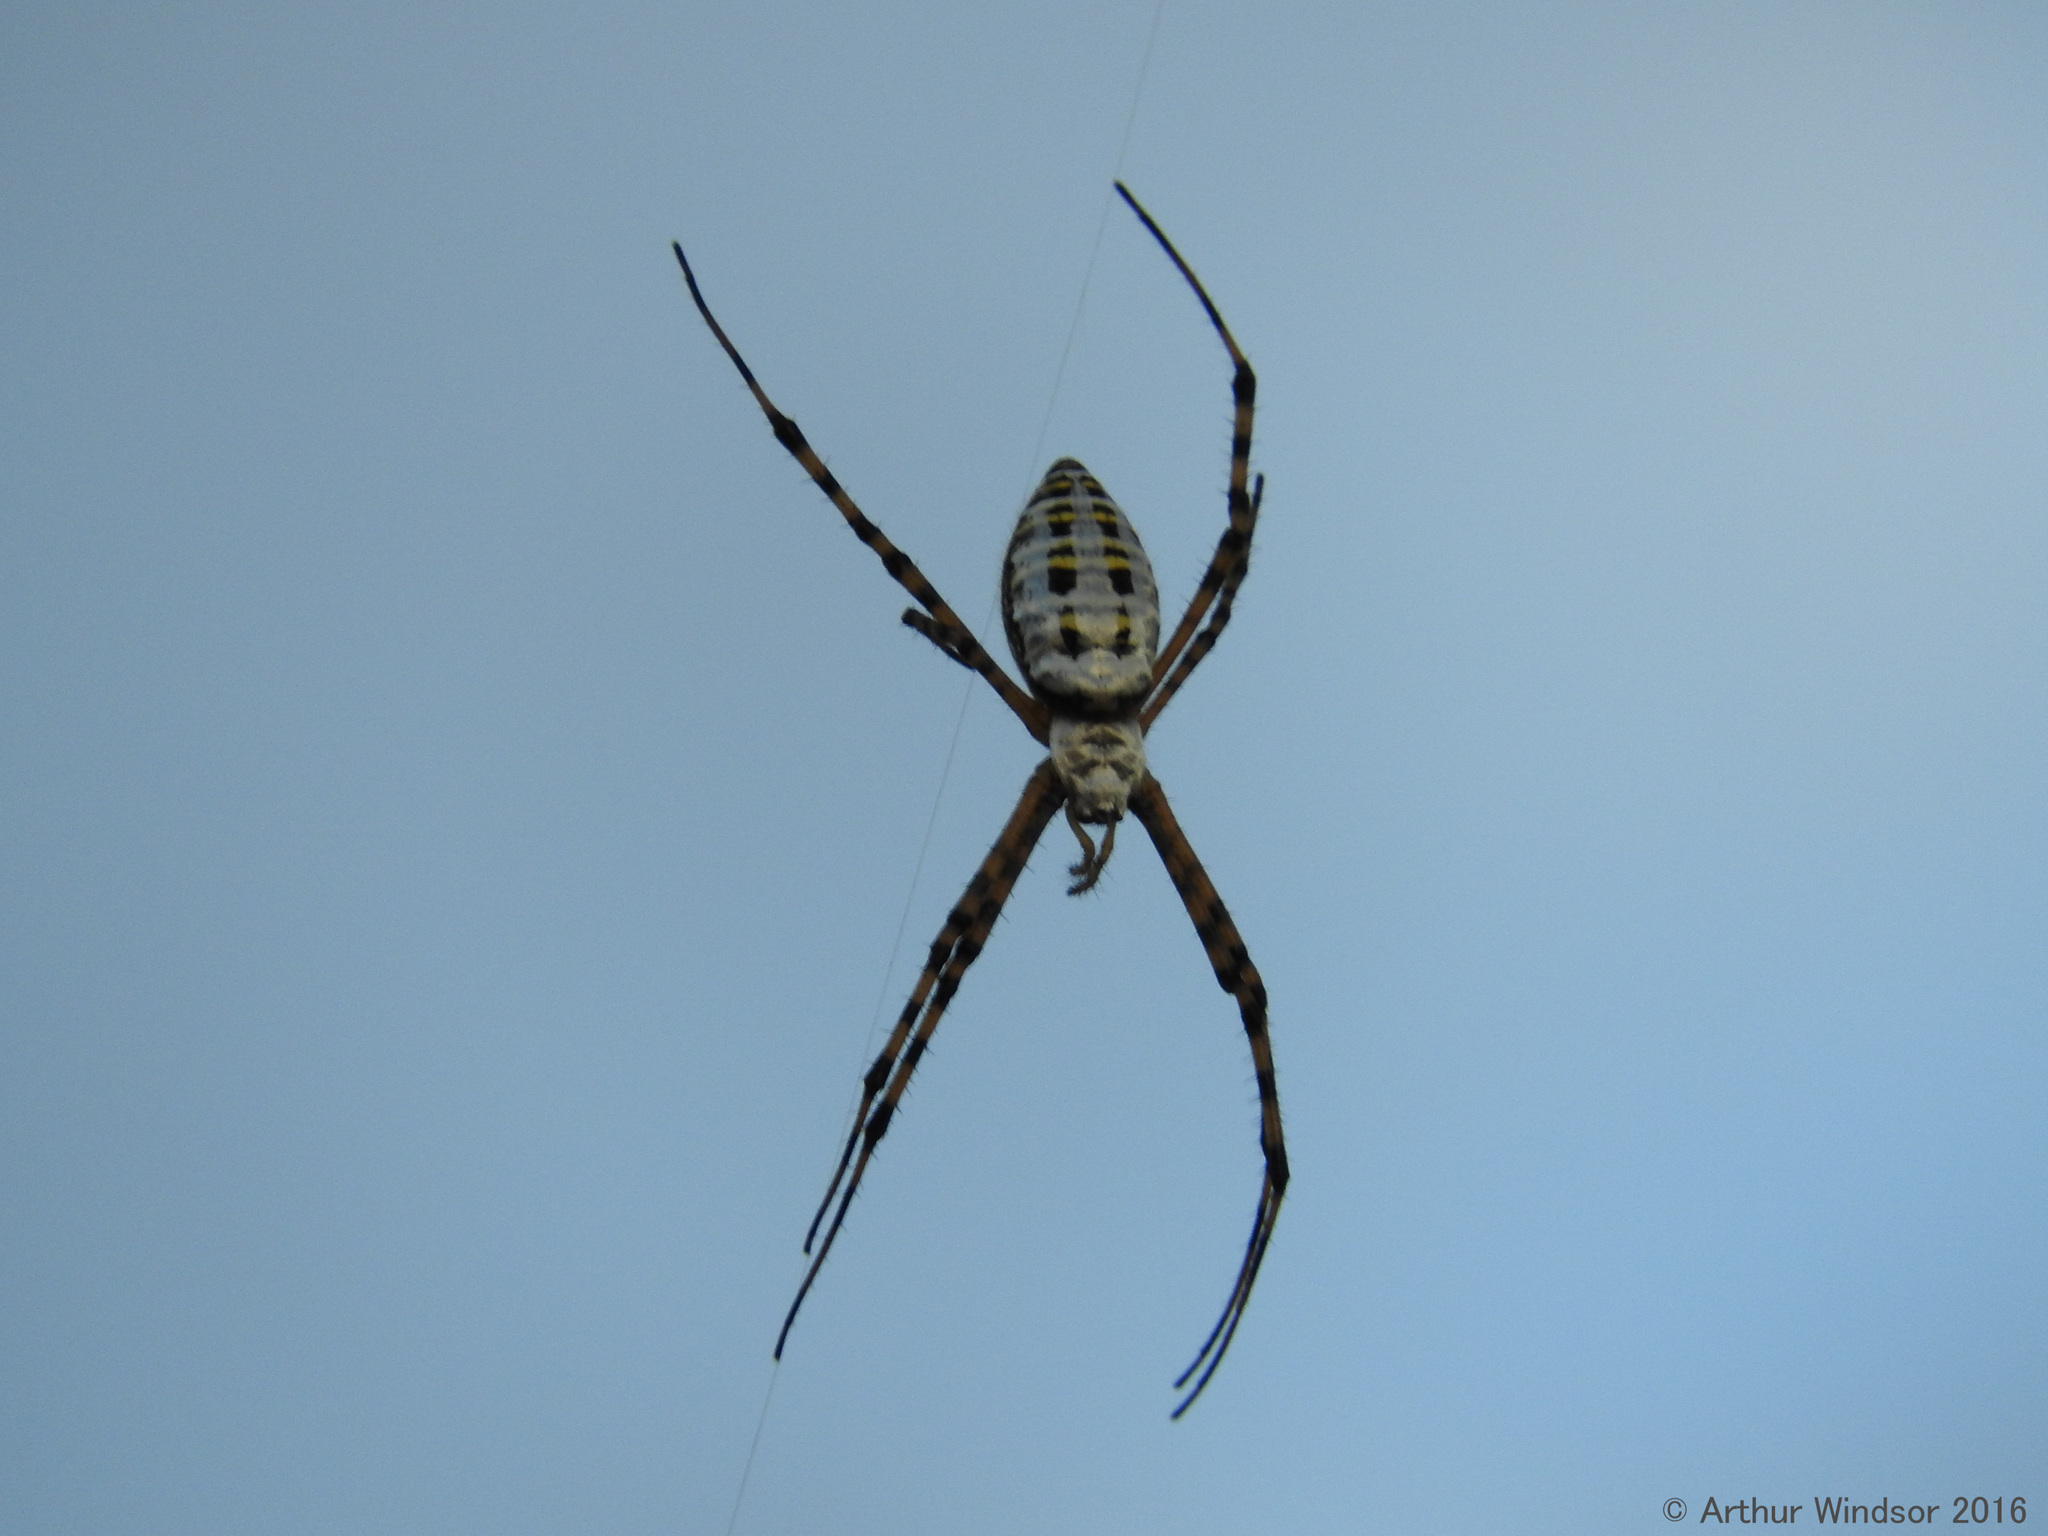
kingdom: Animalia
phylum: Arthropoda
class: Arachnida
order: Araneae
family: Araneidae
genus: Argiope
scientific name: Argiope trifasciata
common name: Banded garden spider
